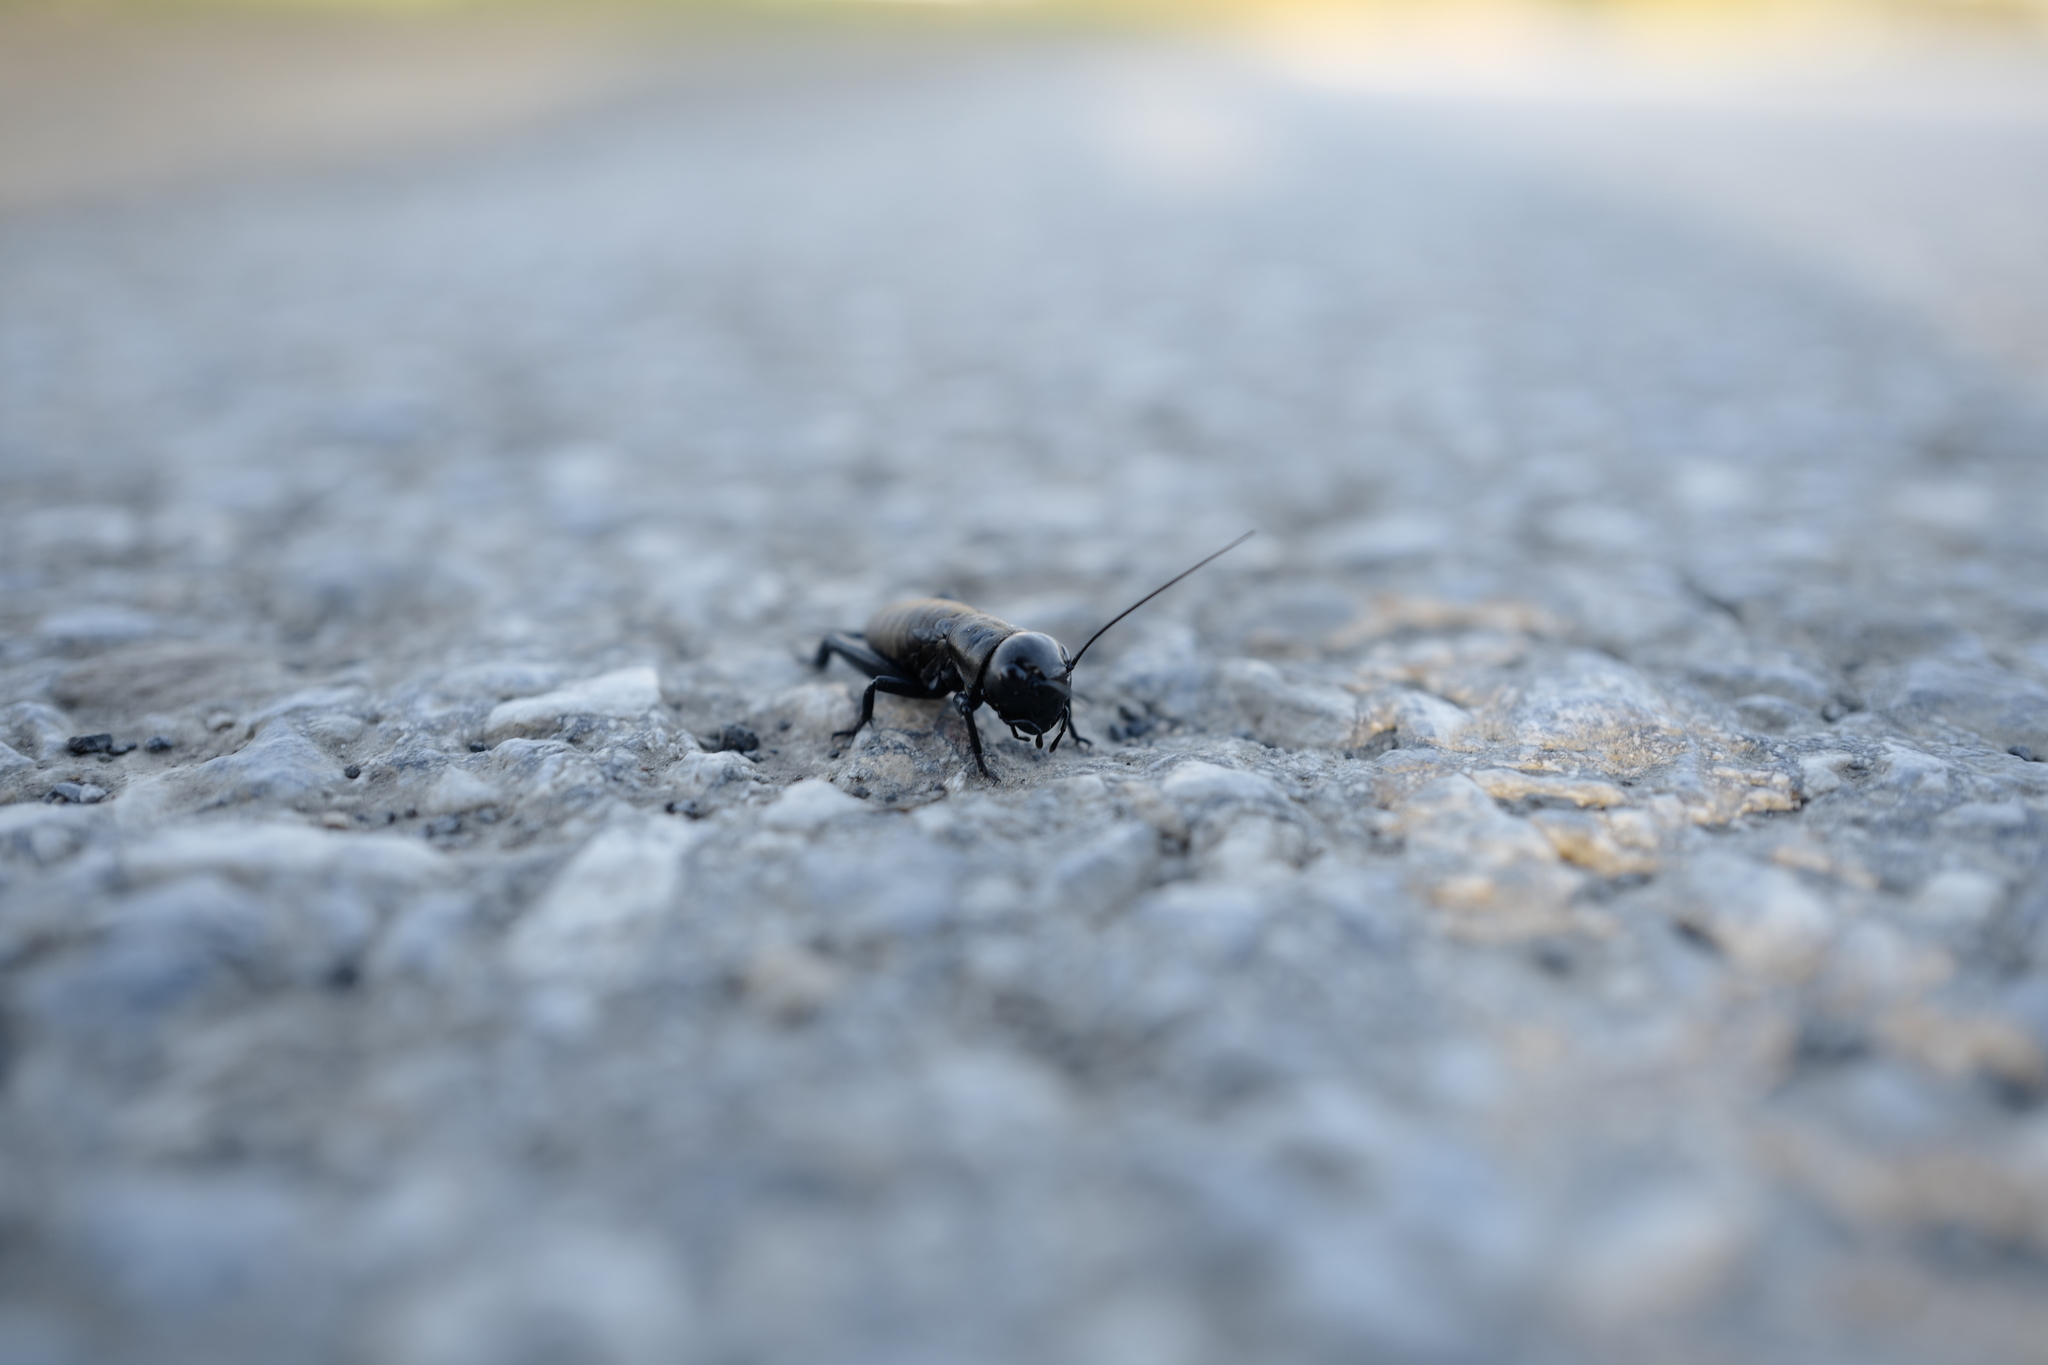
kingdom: Animalia
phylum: Arthropoda
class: Insecta
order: Orthoptera
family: Gryllidae
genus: Gryllus
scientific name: Gryllus campestris
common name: Field cricket
